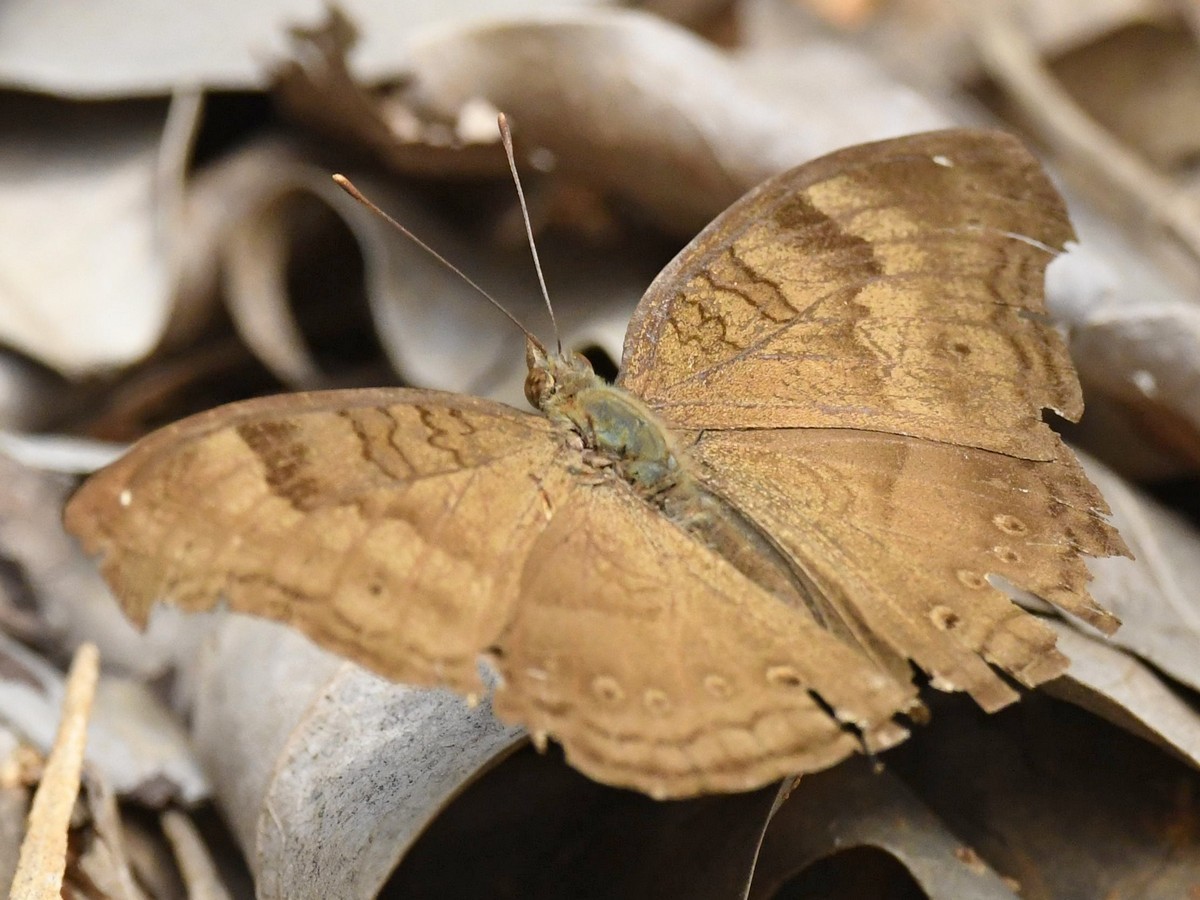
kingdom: Animalia
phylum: Arthropoda
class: Insecta
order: Lepidoptera
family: Nymphalidae
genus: Junonia
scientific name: Junonia iphita
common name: Chocolate pansy
